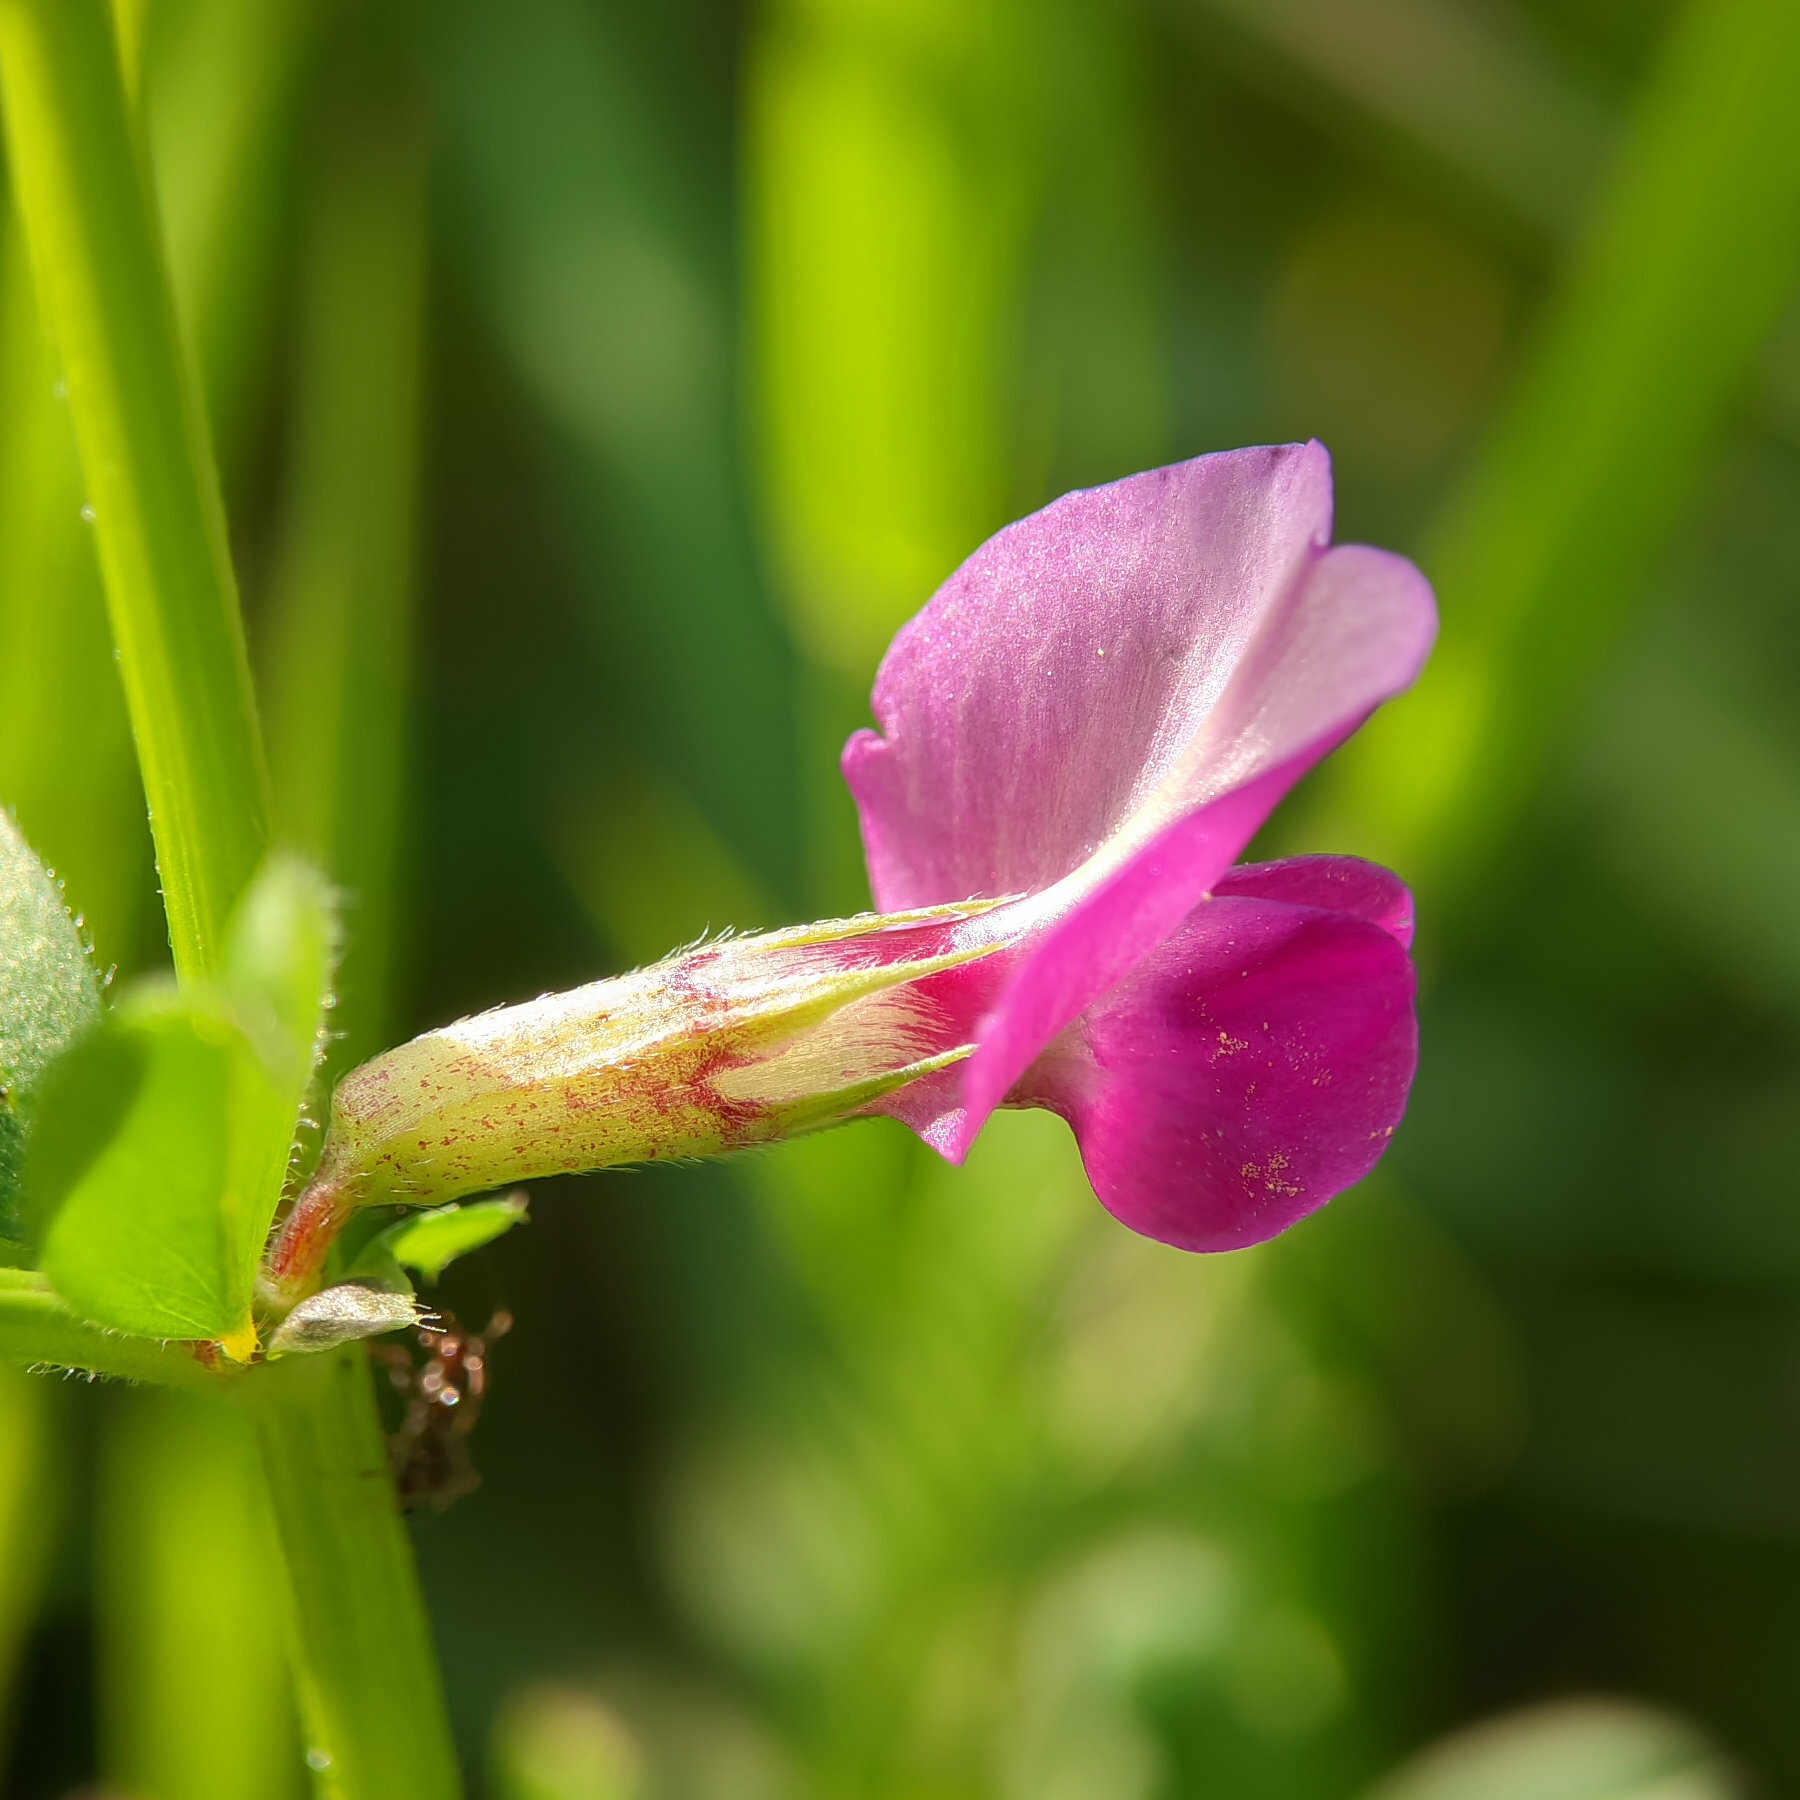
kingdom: Plantae
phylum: Tracheophyta
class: Magnoliopsida
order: Fabales
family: Fabaceae
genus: Vicia
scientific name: Vicia sativa
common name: Garden vetch
